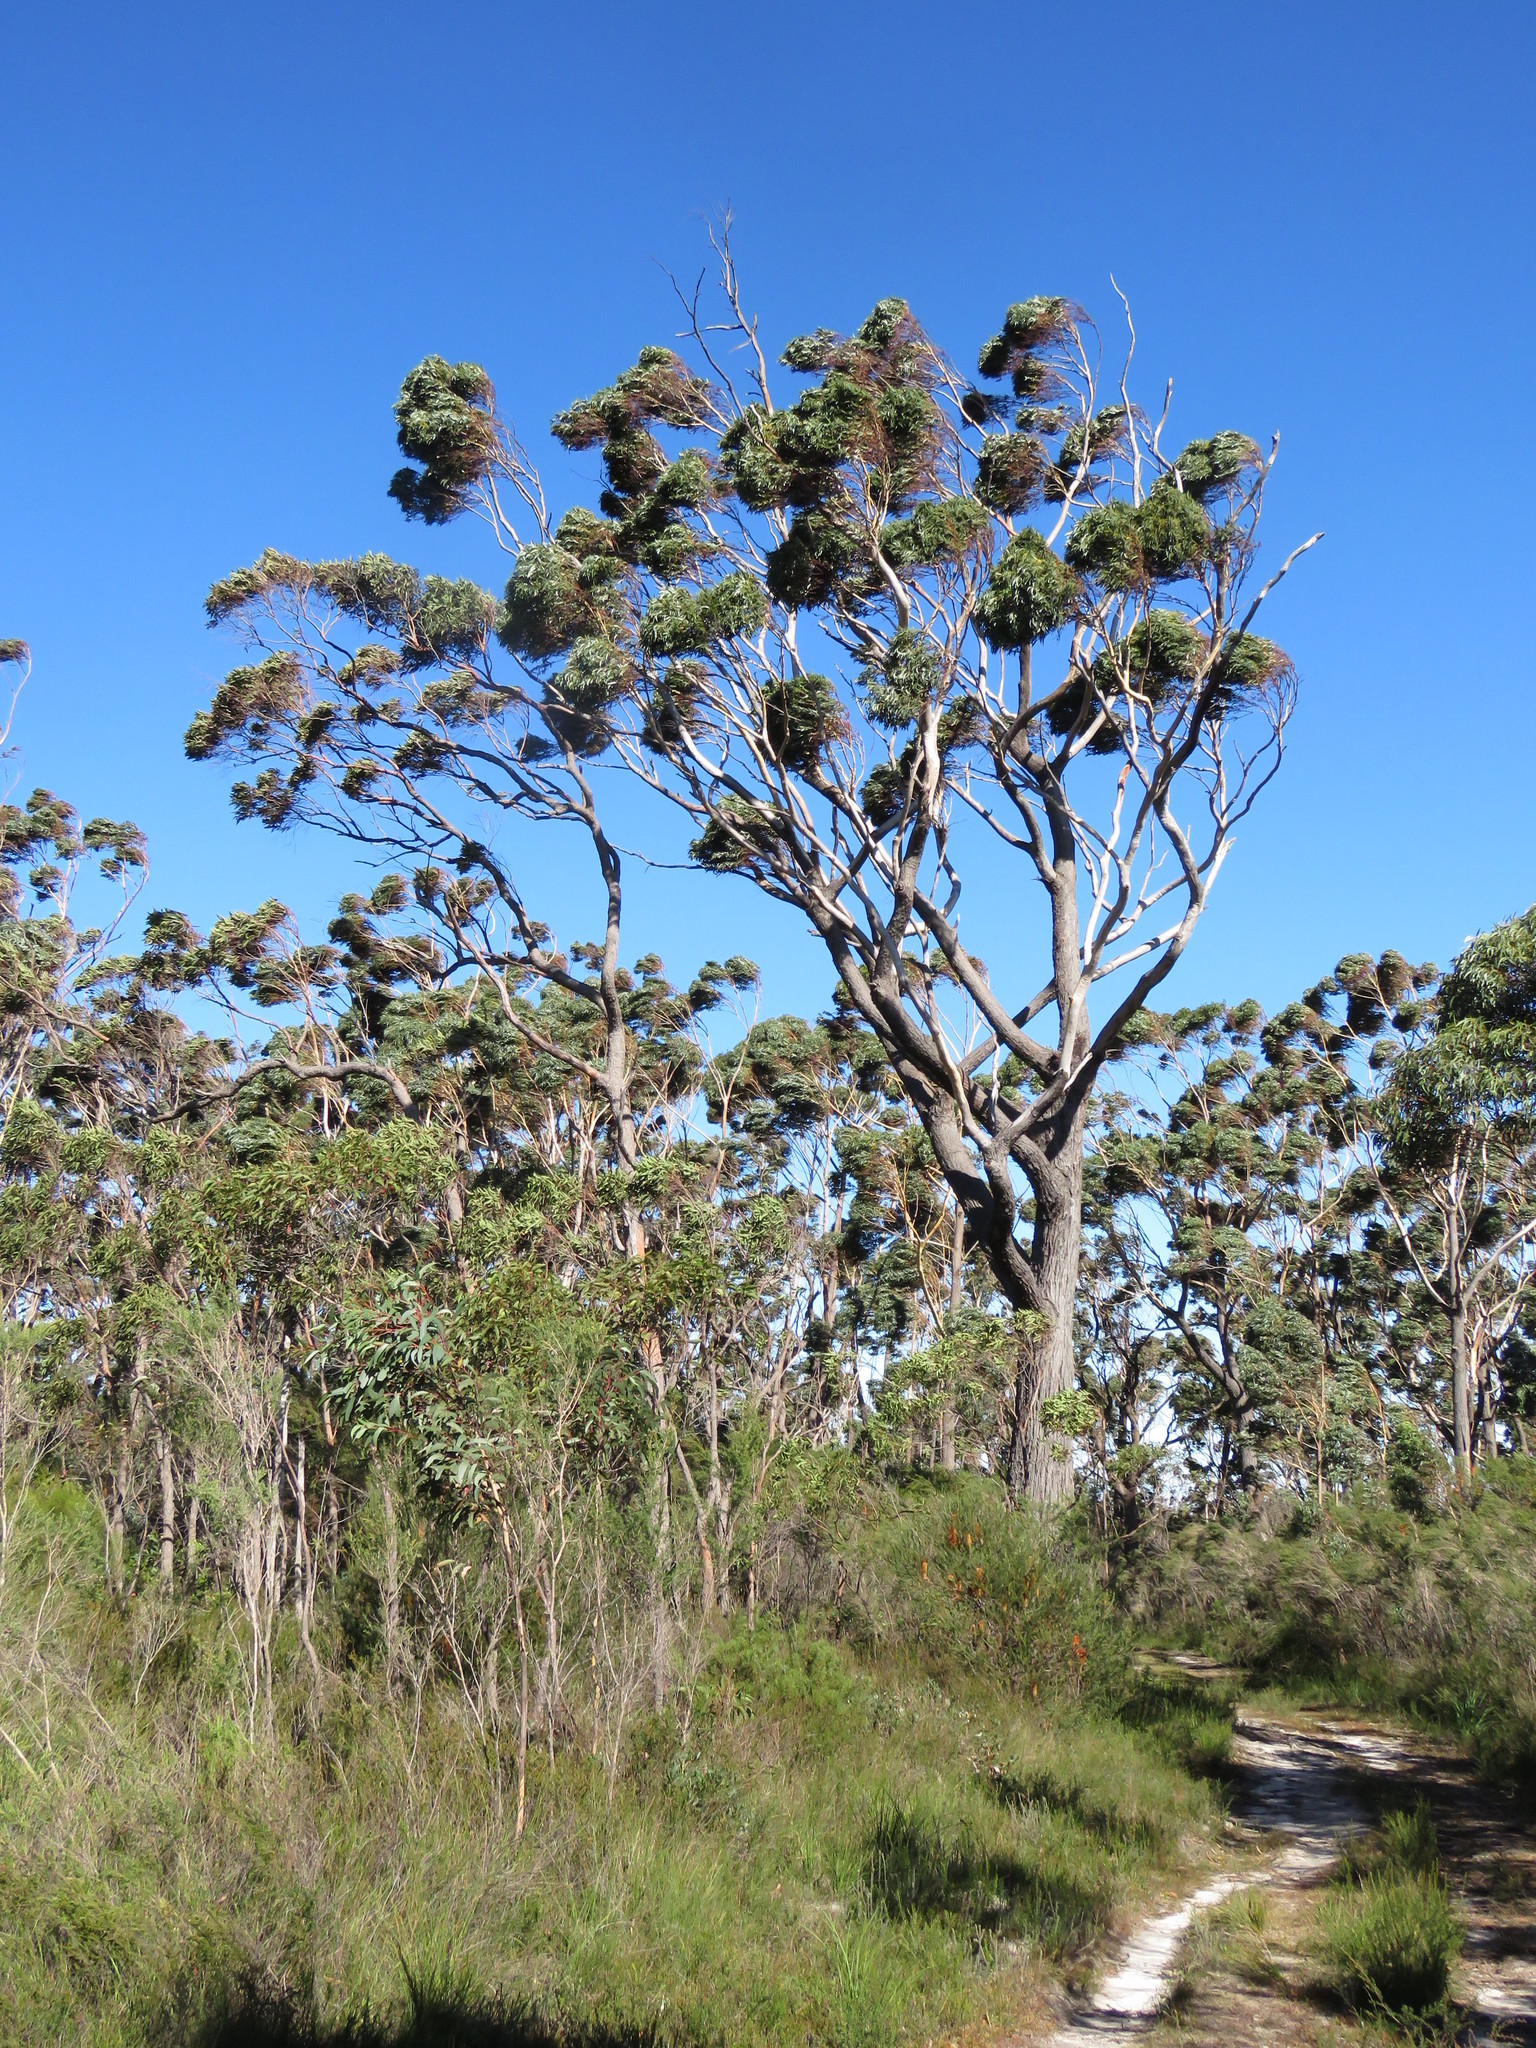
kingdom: Plantae
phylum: Tracheophyta
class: Magnoliopsida
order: Myrtales
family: Myrtaceae
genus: Eucalyptus
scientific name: Eucalyptus sieberi
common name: Black-ash
